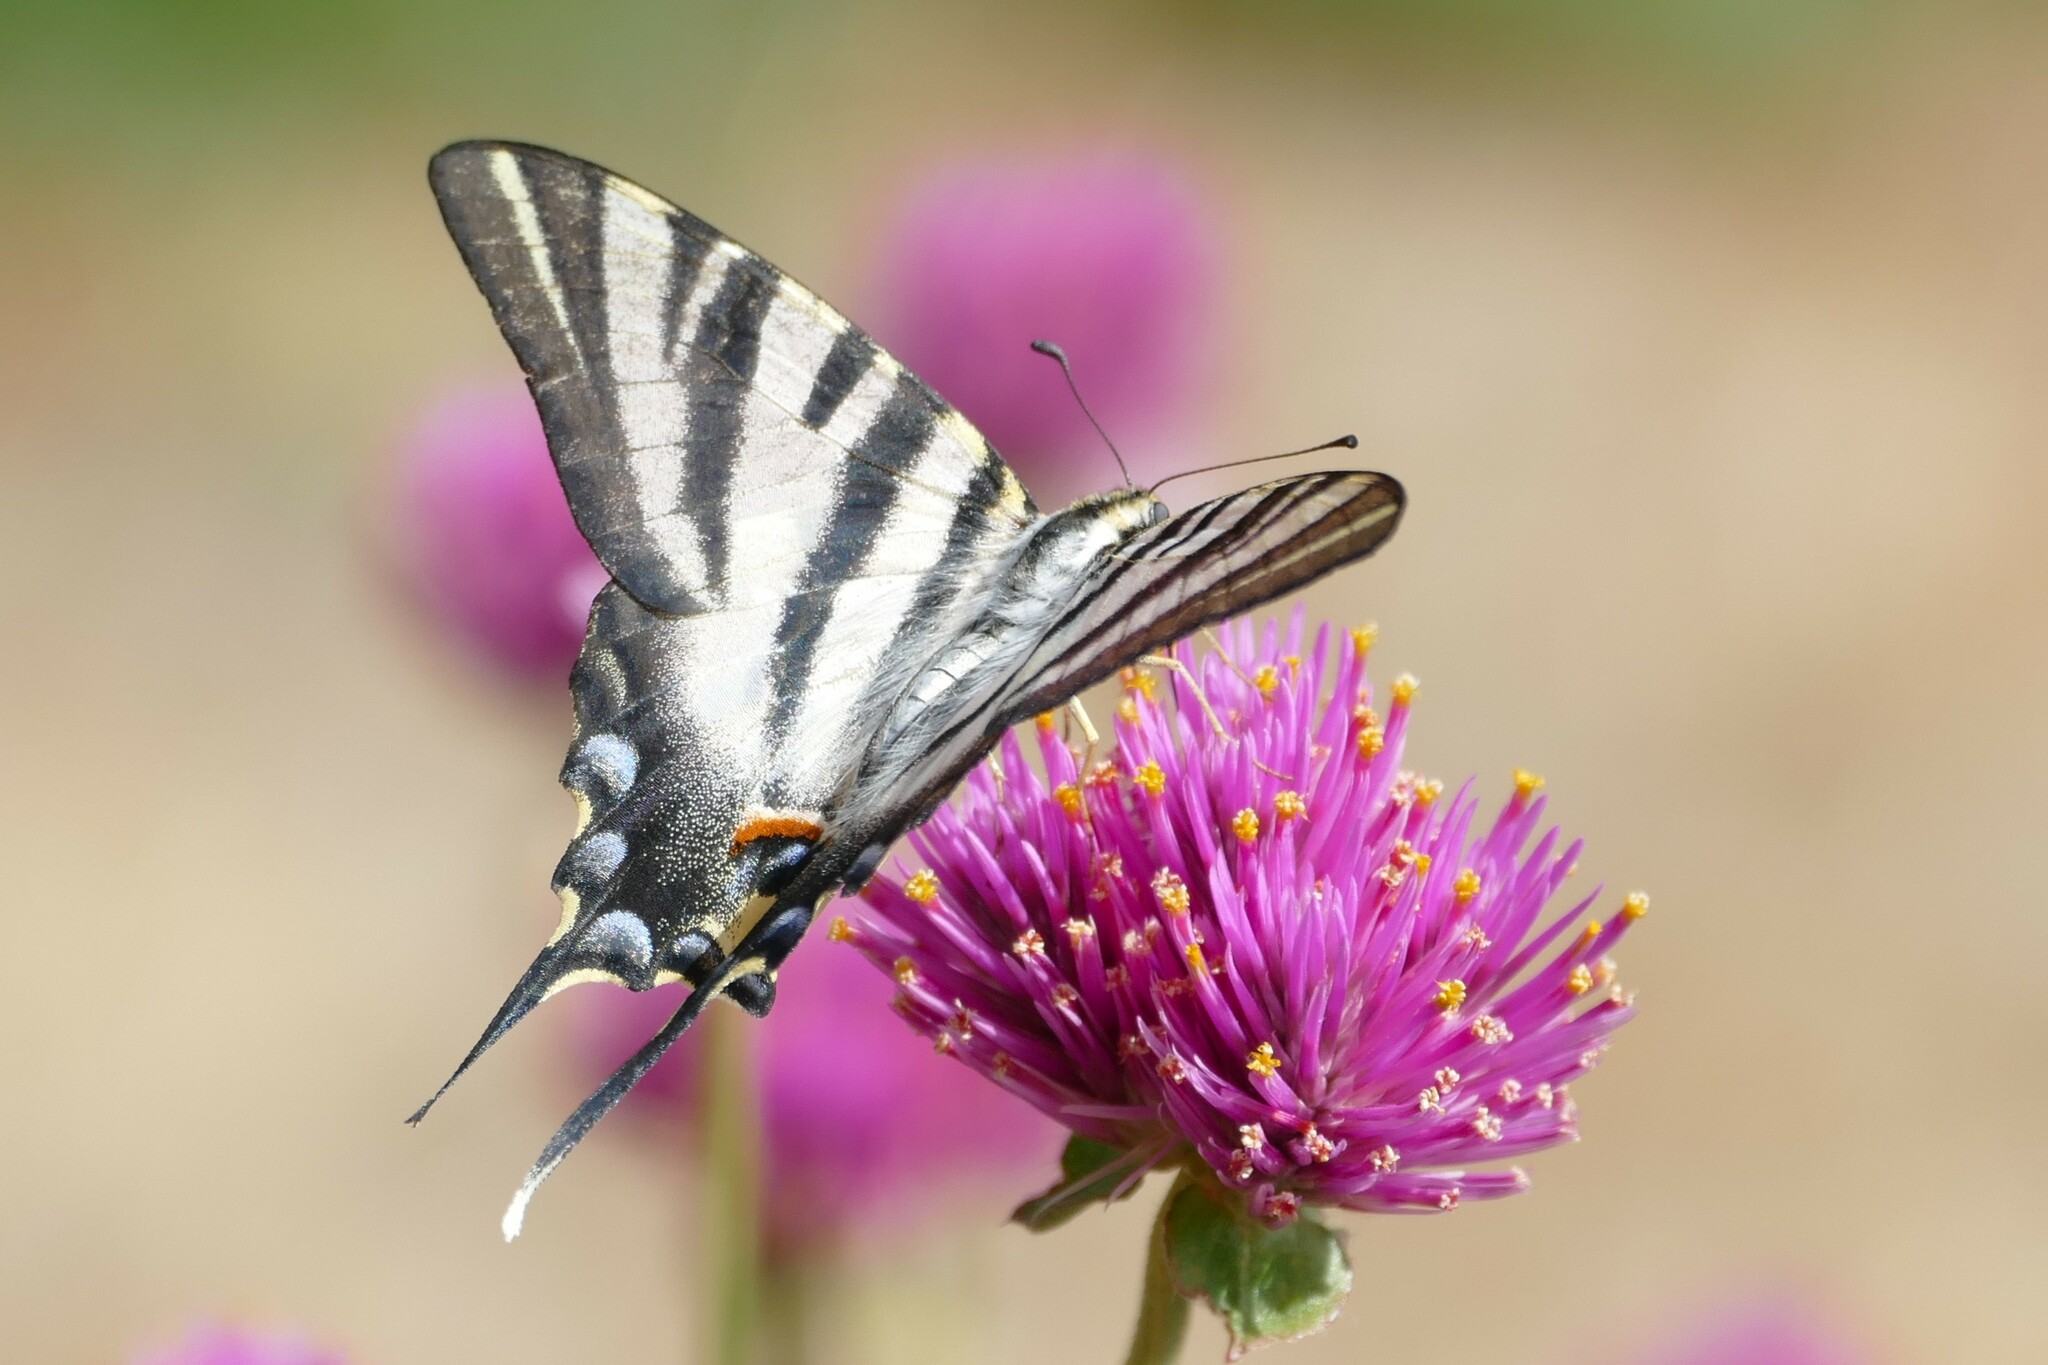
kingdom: Animalia
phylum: Arthropoda
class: Insecta
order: Lepidoptera
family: Papilionidae
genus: Iphiclides
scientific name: Iphiclides feisthamelii
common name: Iberian scarce swallowtail
